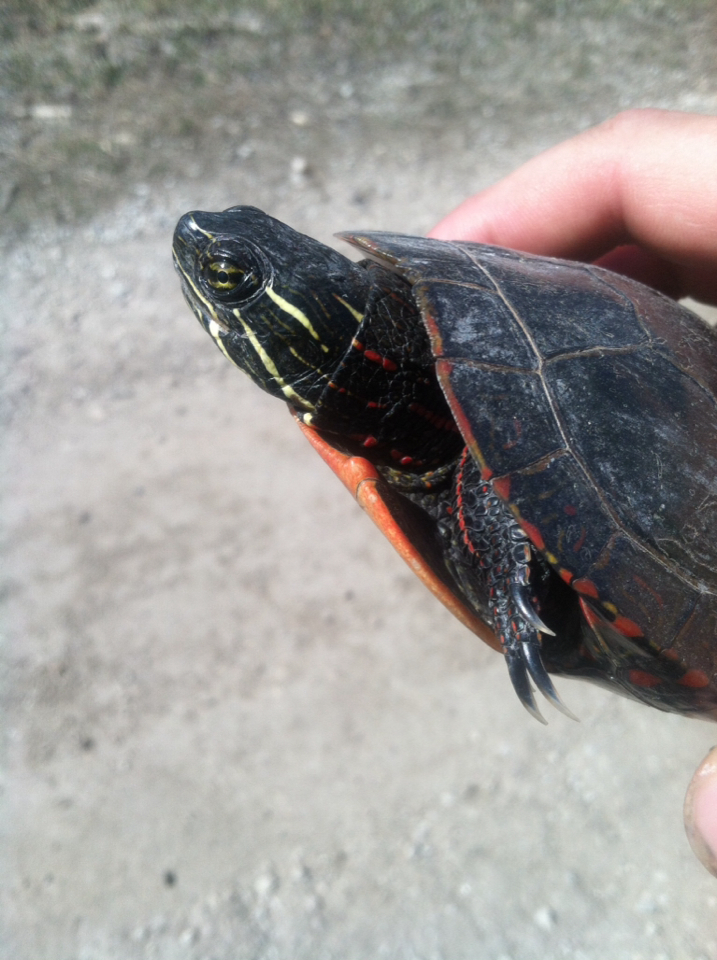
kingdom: Animalia
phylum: Chordata
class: Testudines
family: Emydidae
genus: Chrysemys
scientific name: Chrysemys picta
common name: Painted turtle
